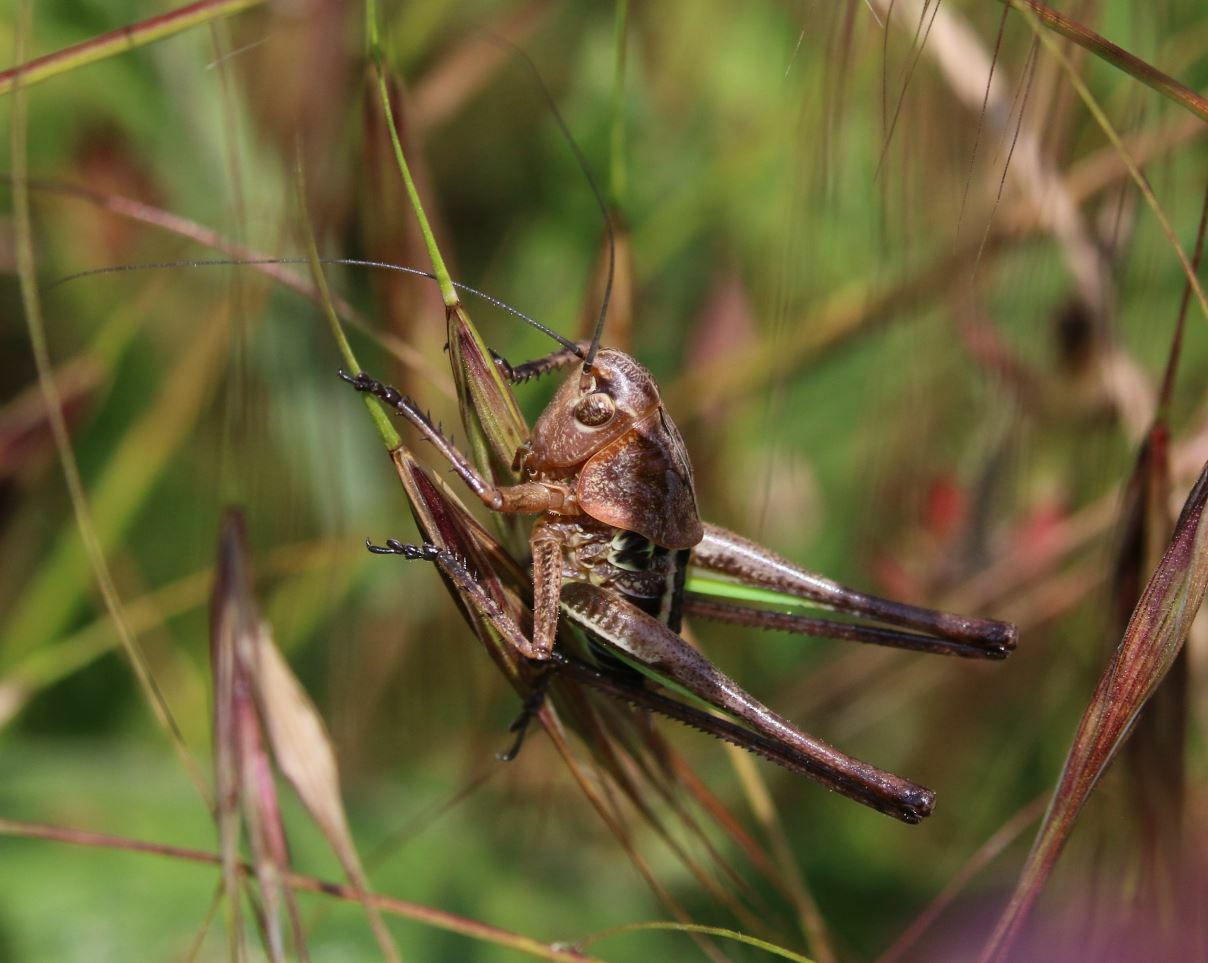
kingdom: Animalia
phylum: Arthropoda
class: Insecta
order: Orthoptera
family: Tettigoniidae
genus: Decticus
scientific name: Decticus albifrons
